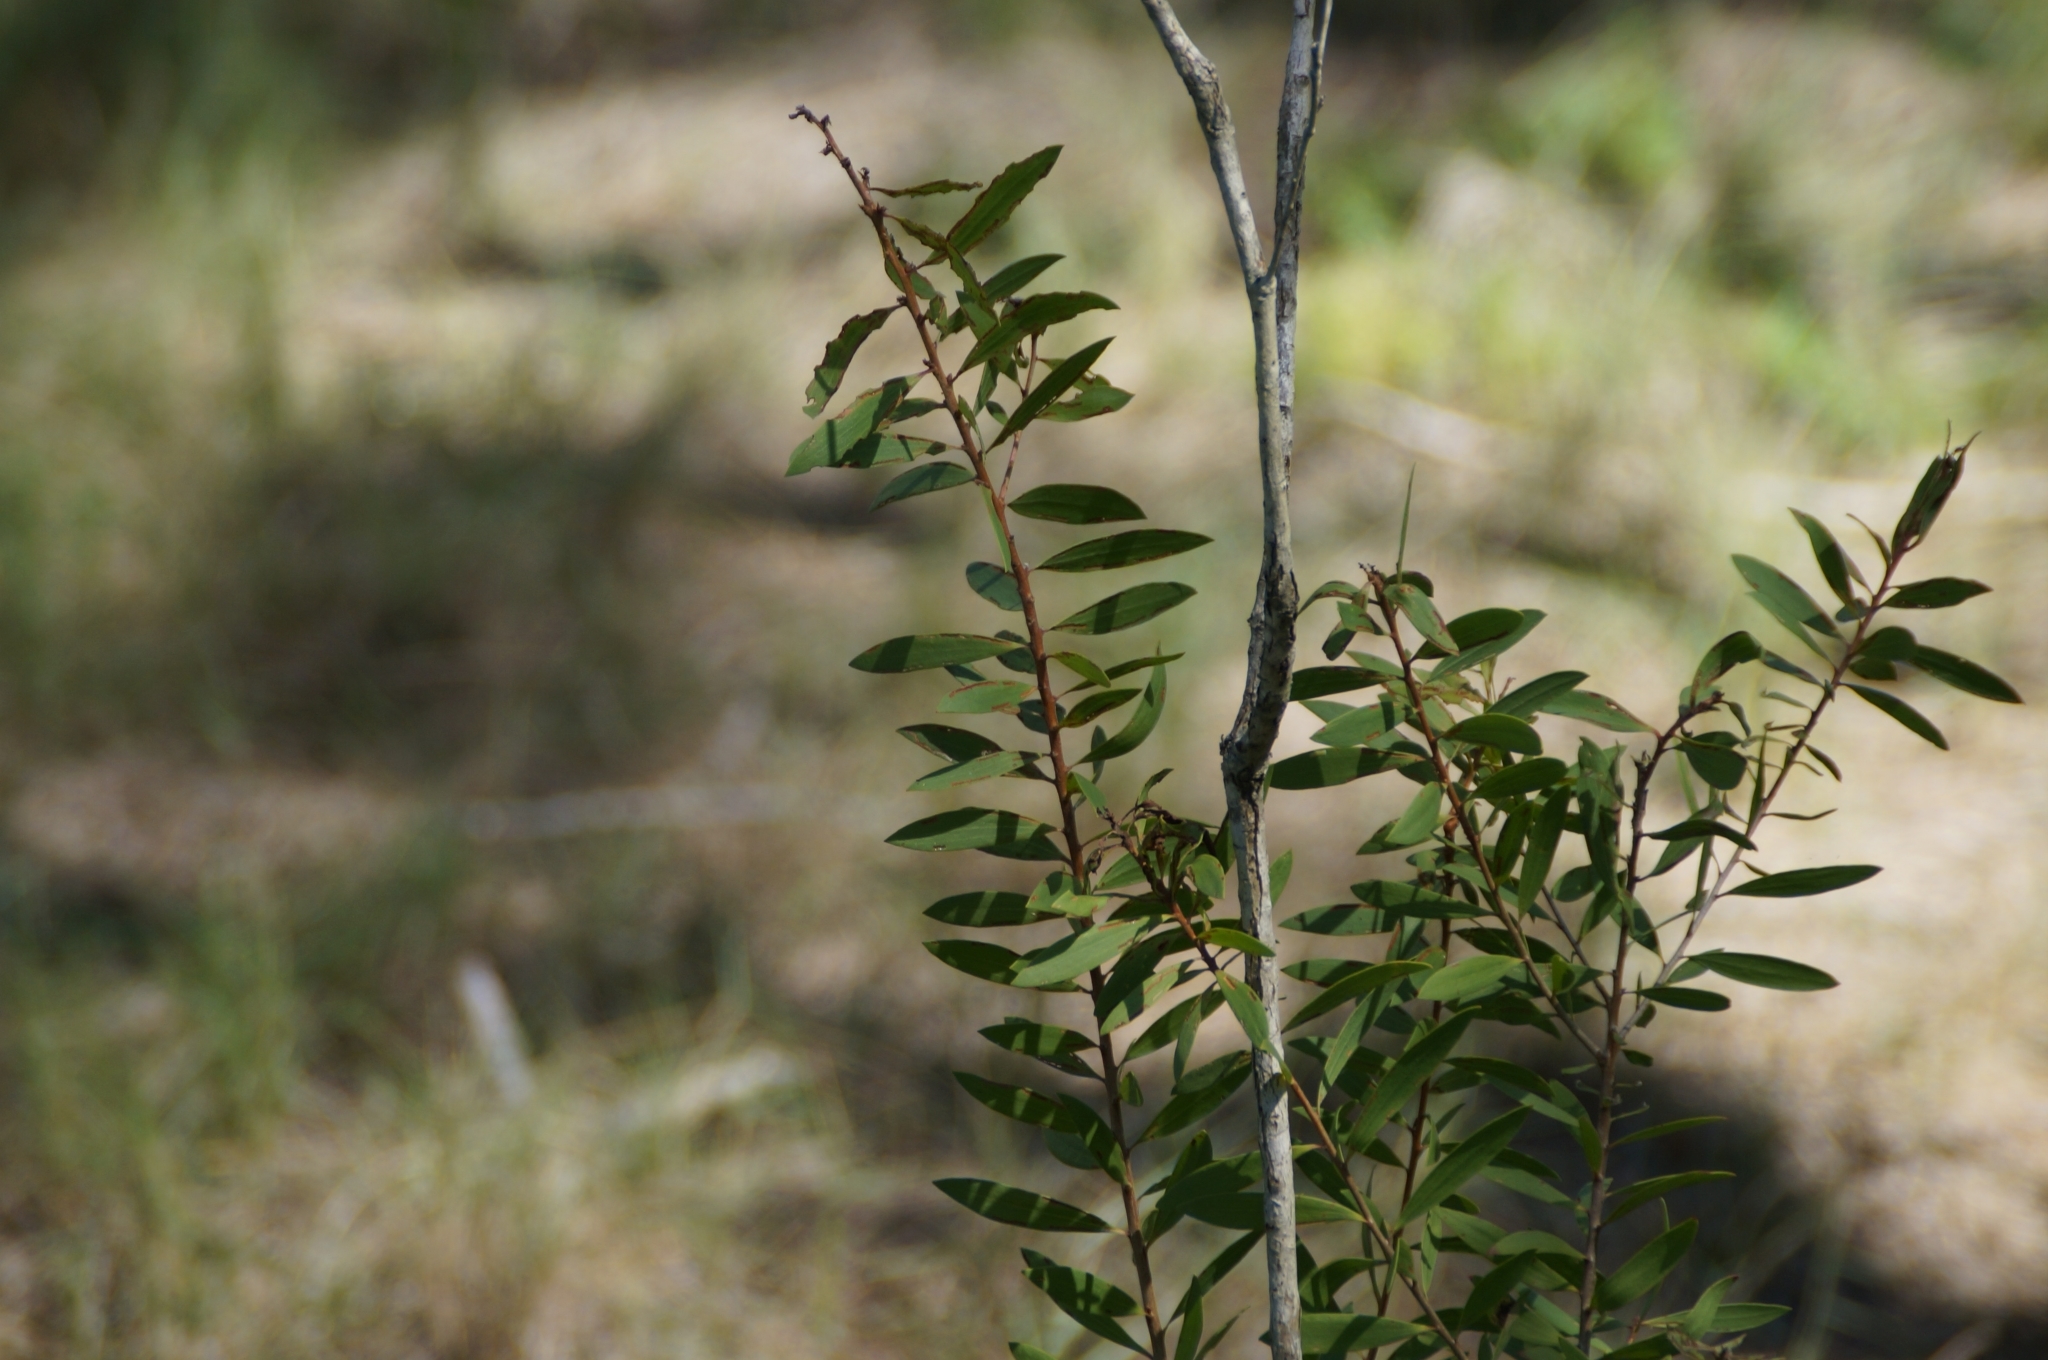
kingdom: Plantae
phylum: Tracheophyta
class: Magnoliopsida
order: Myrtales
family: Myrtaceae
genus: Melaleuca
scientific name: Melaleuca quinquenervia
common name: Punktree
